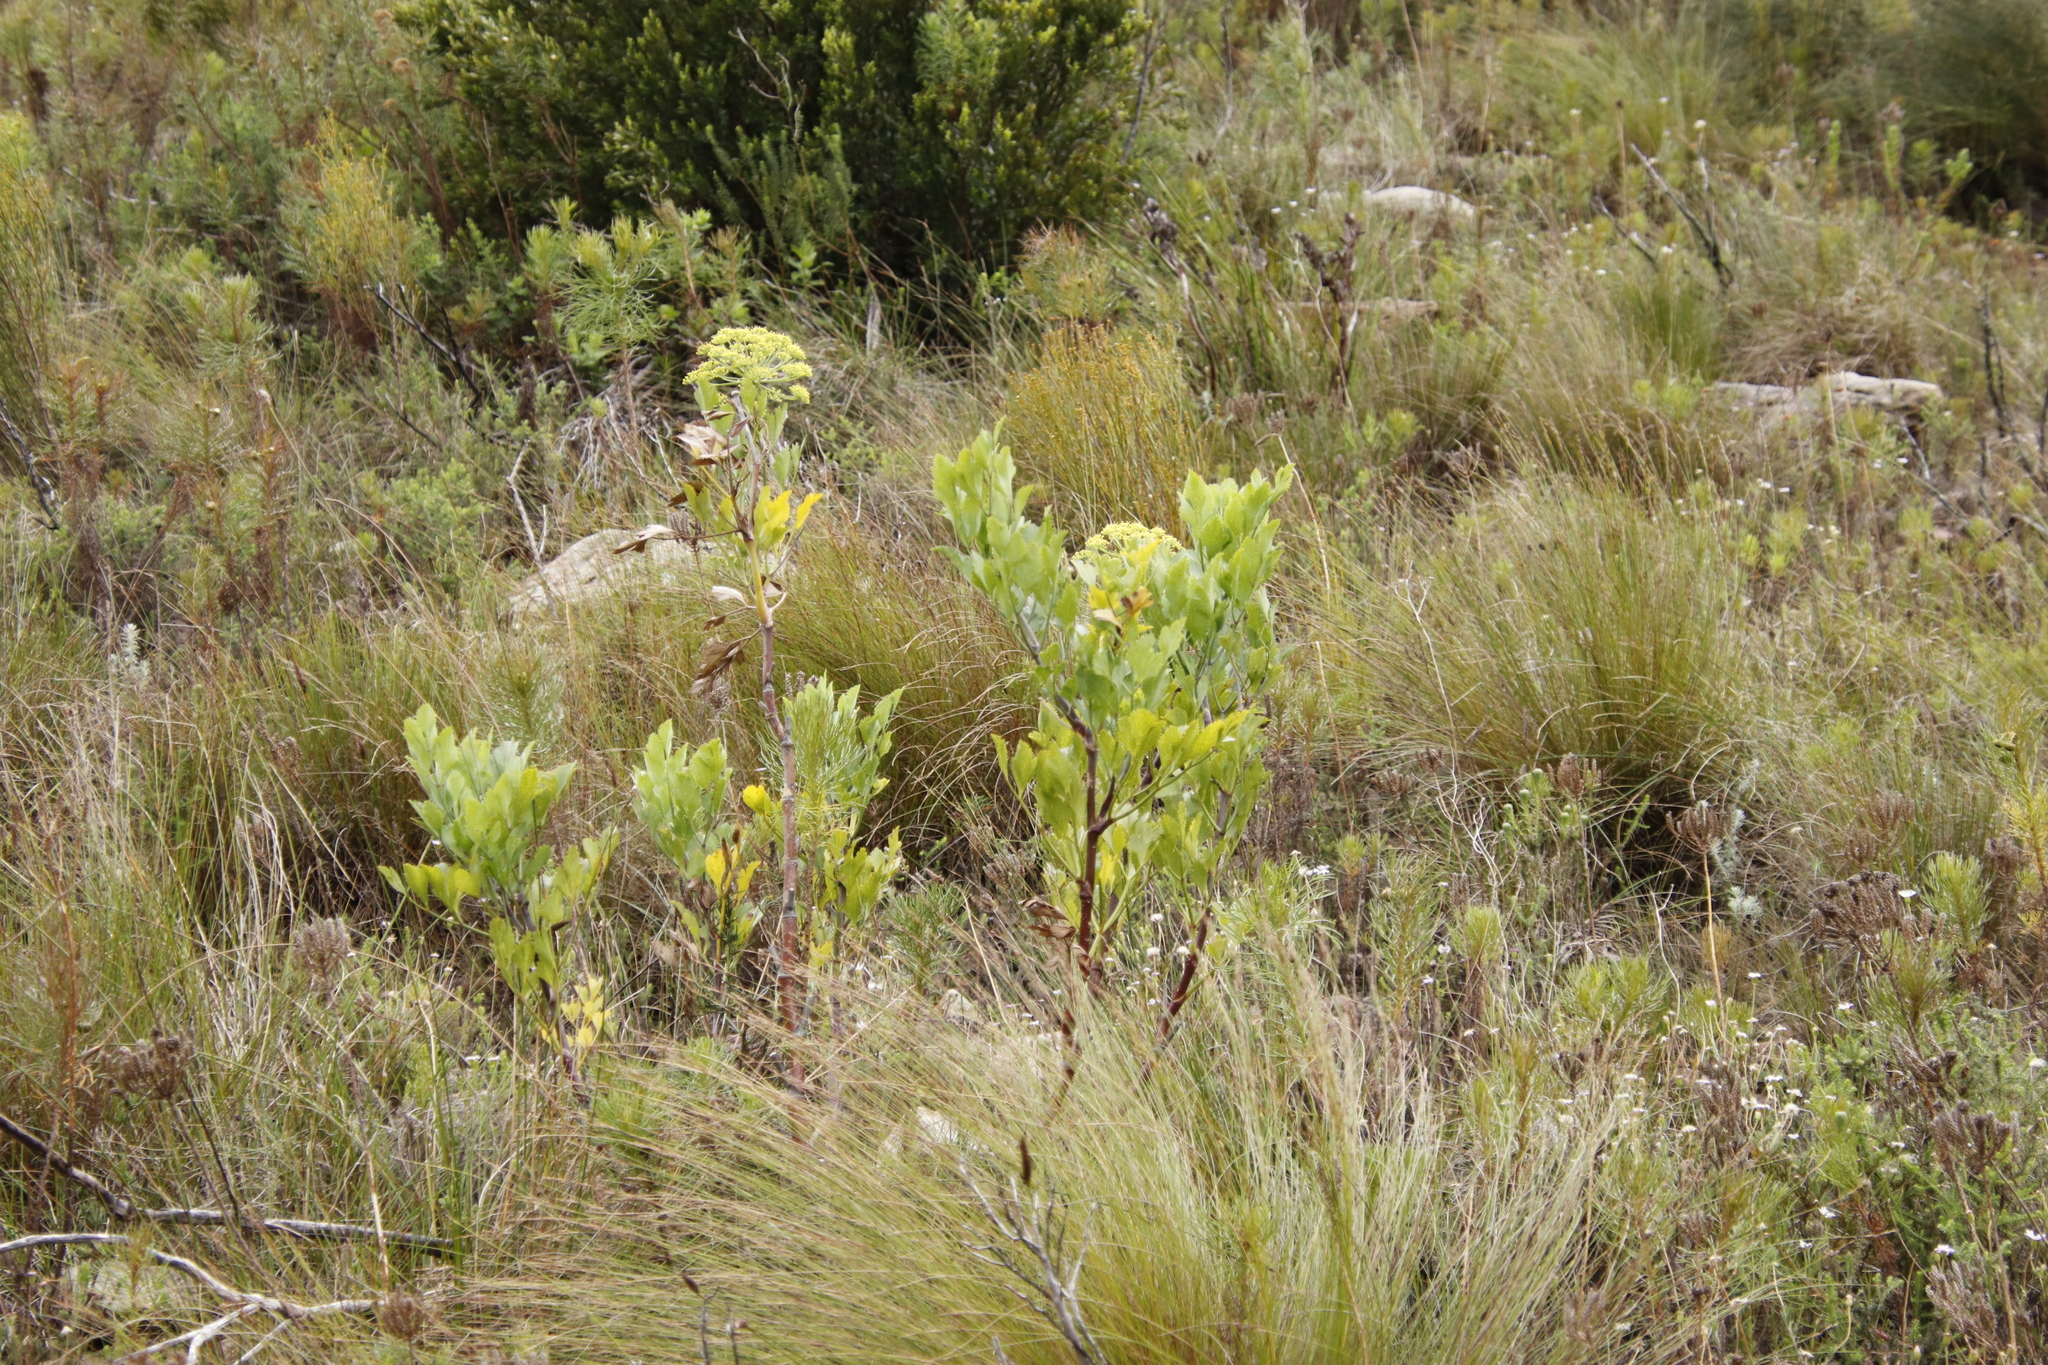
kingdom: Plantae
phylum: Tracheophyta
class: Magnoliopsida
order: Apiales
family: Apiaceae
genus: Notobubon
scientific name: Notobubon galbanum
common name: Blisterbush
